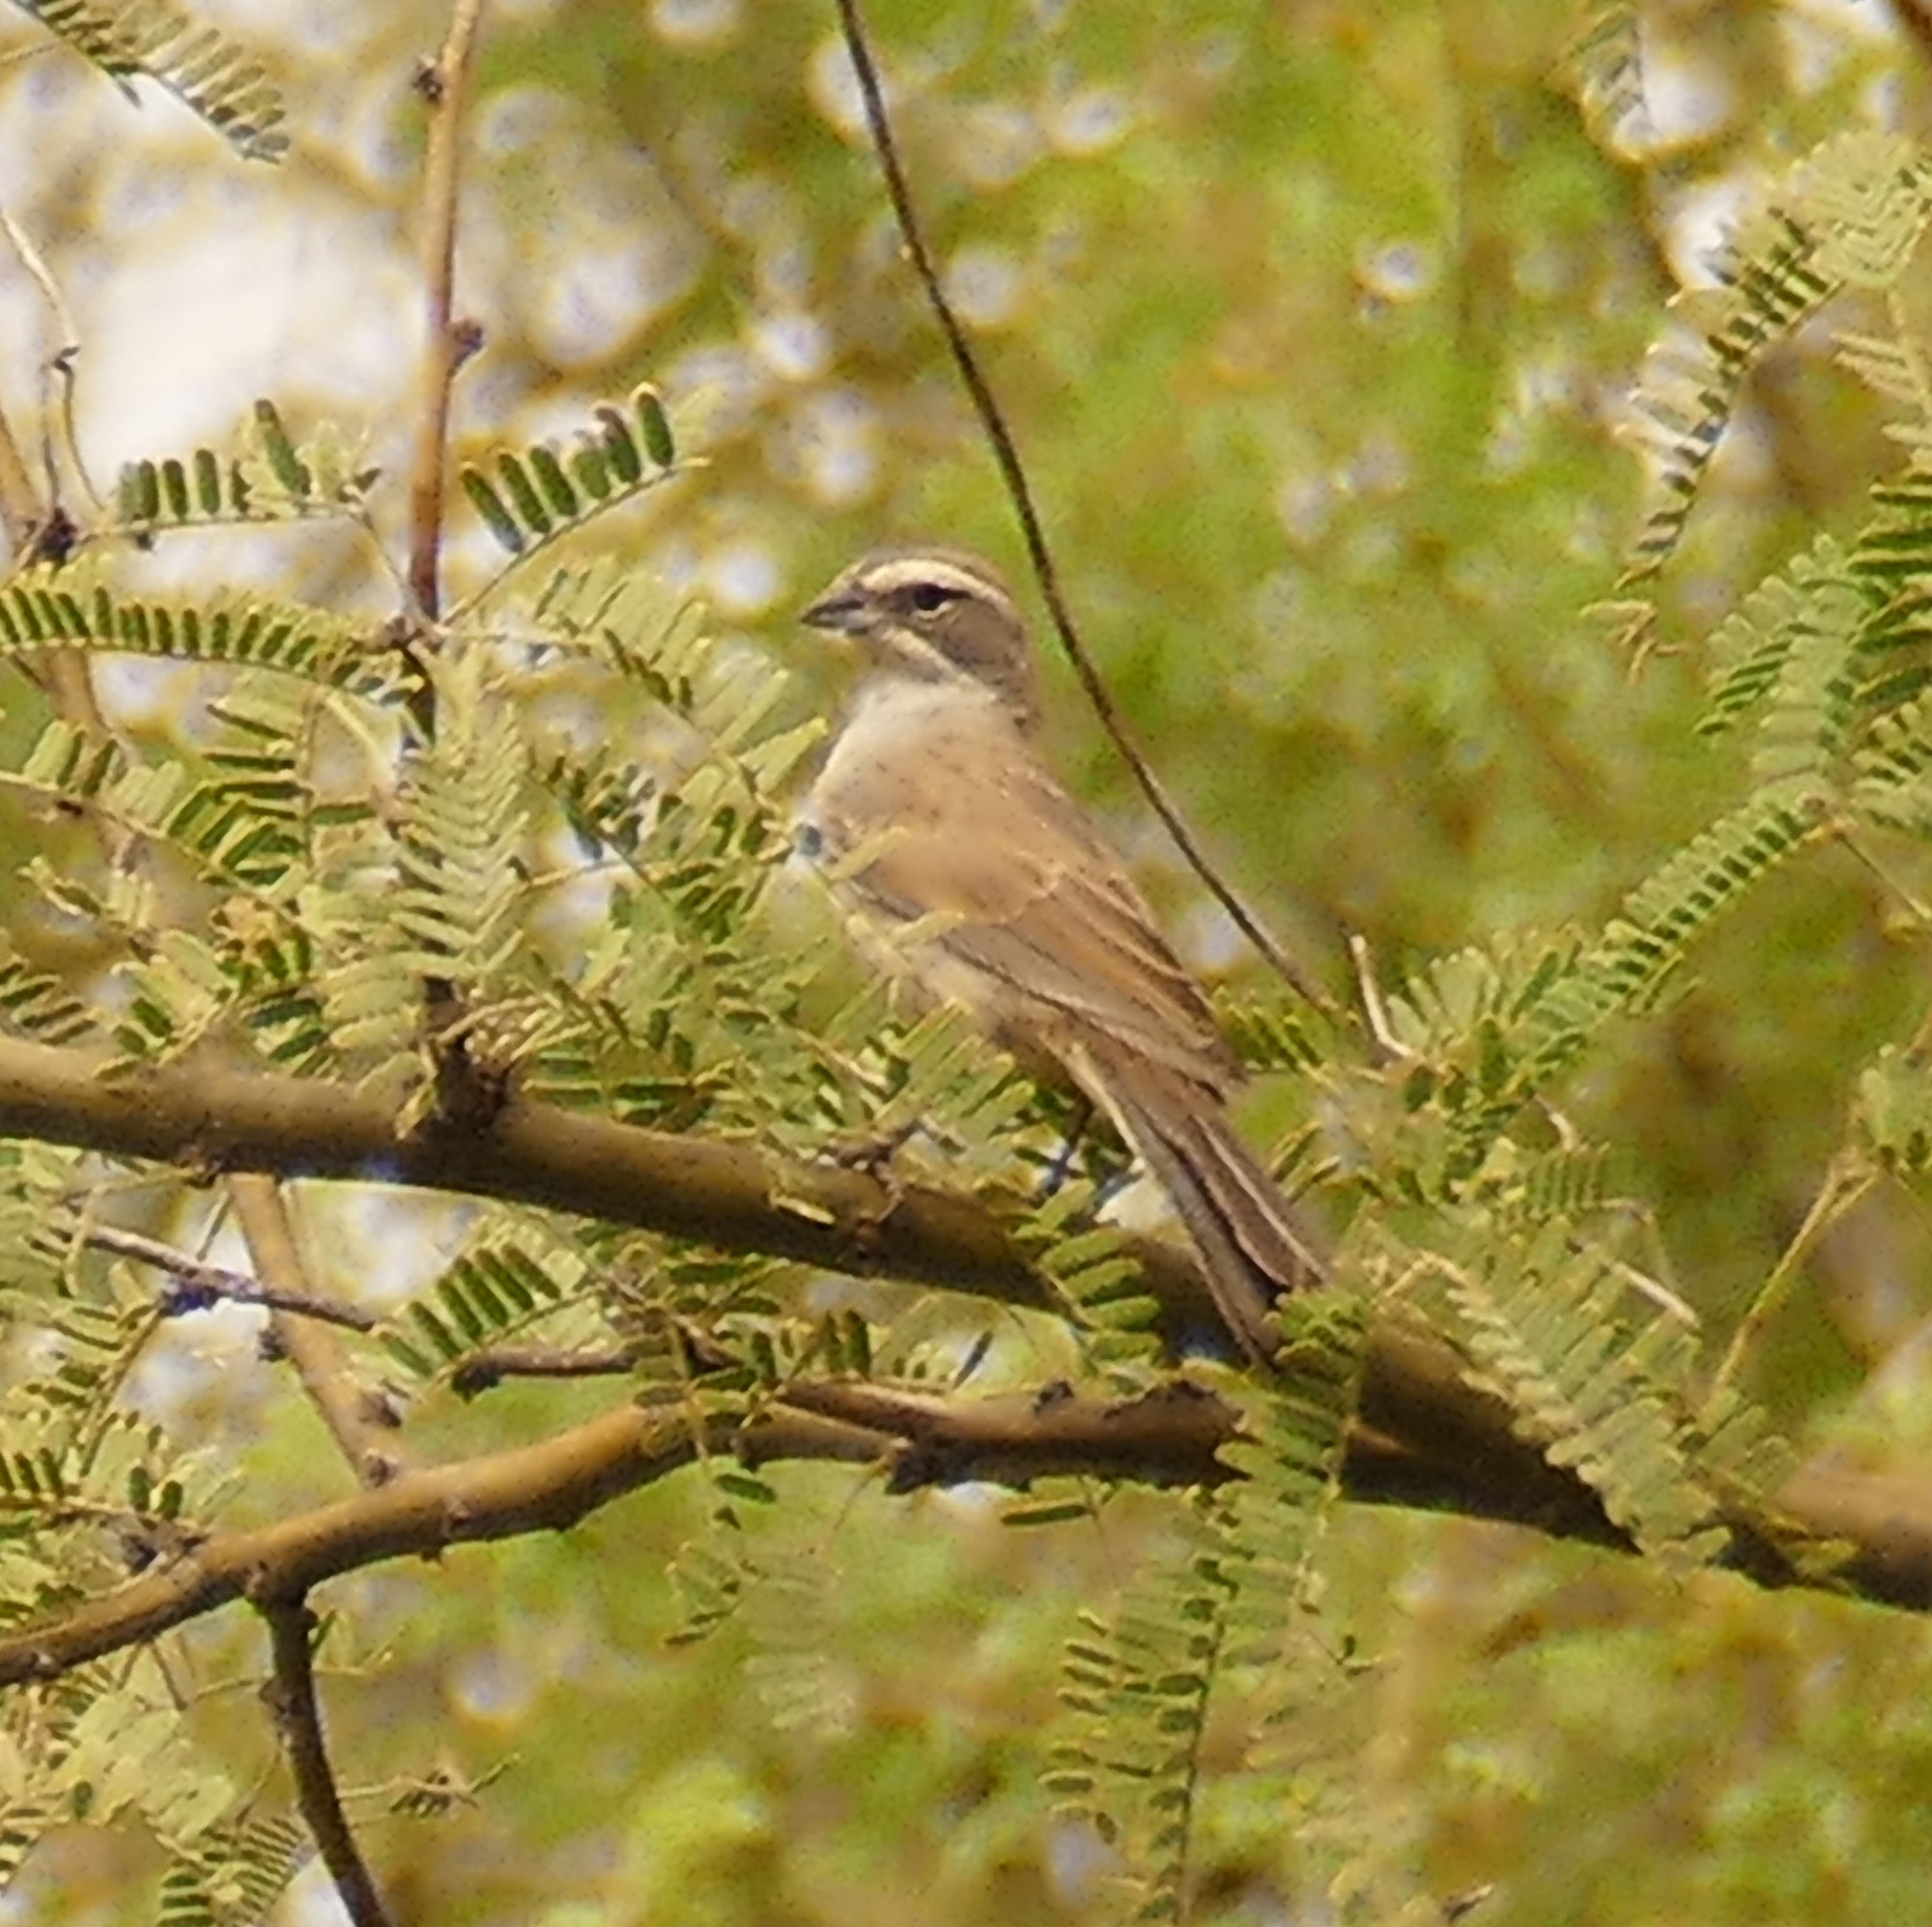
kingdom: Animalia
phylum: Chordata
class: Aves
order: Passeriformes
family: Passerellidae
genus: Amphispiza
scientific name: Amphispiza bilineata
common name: Black-throated sparrow
